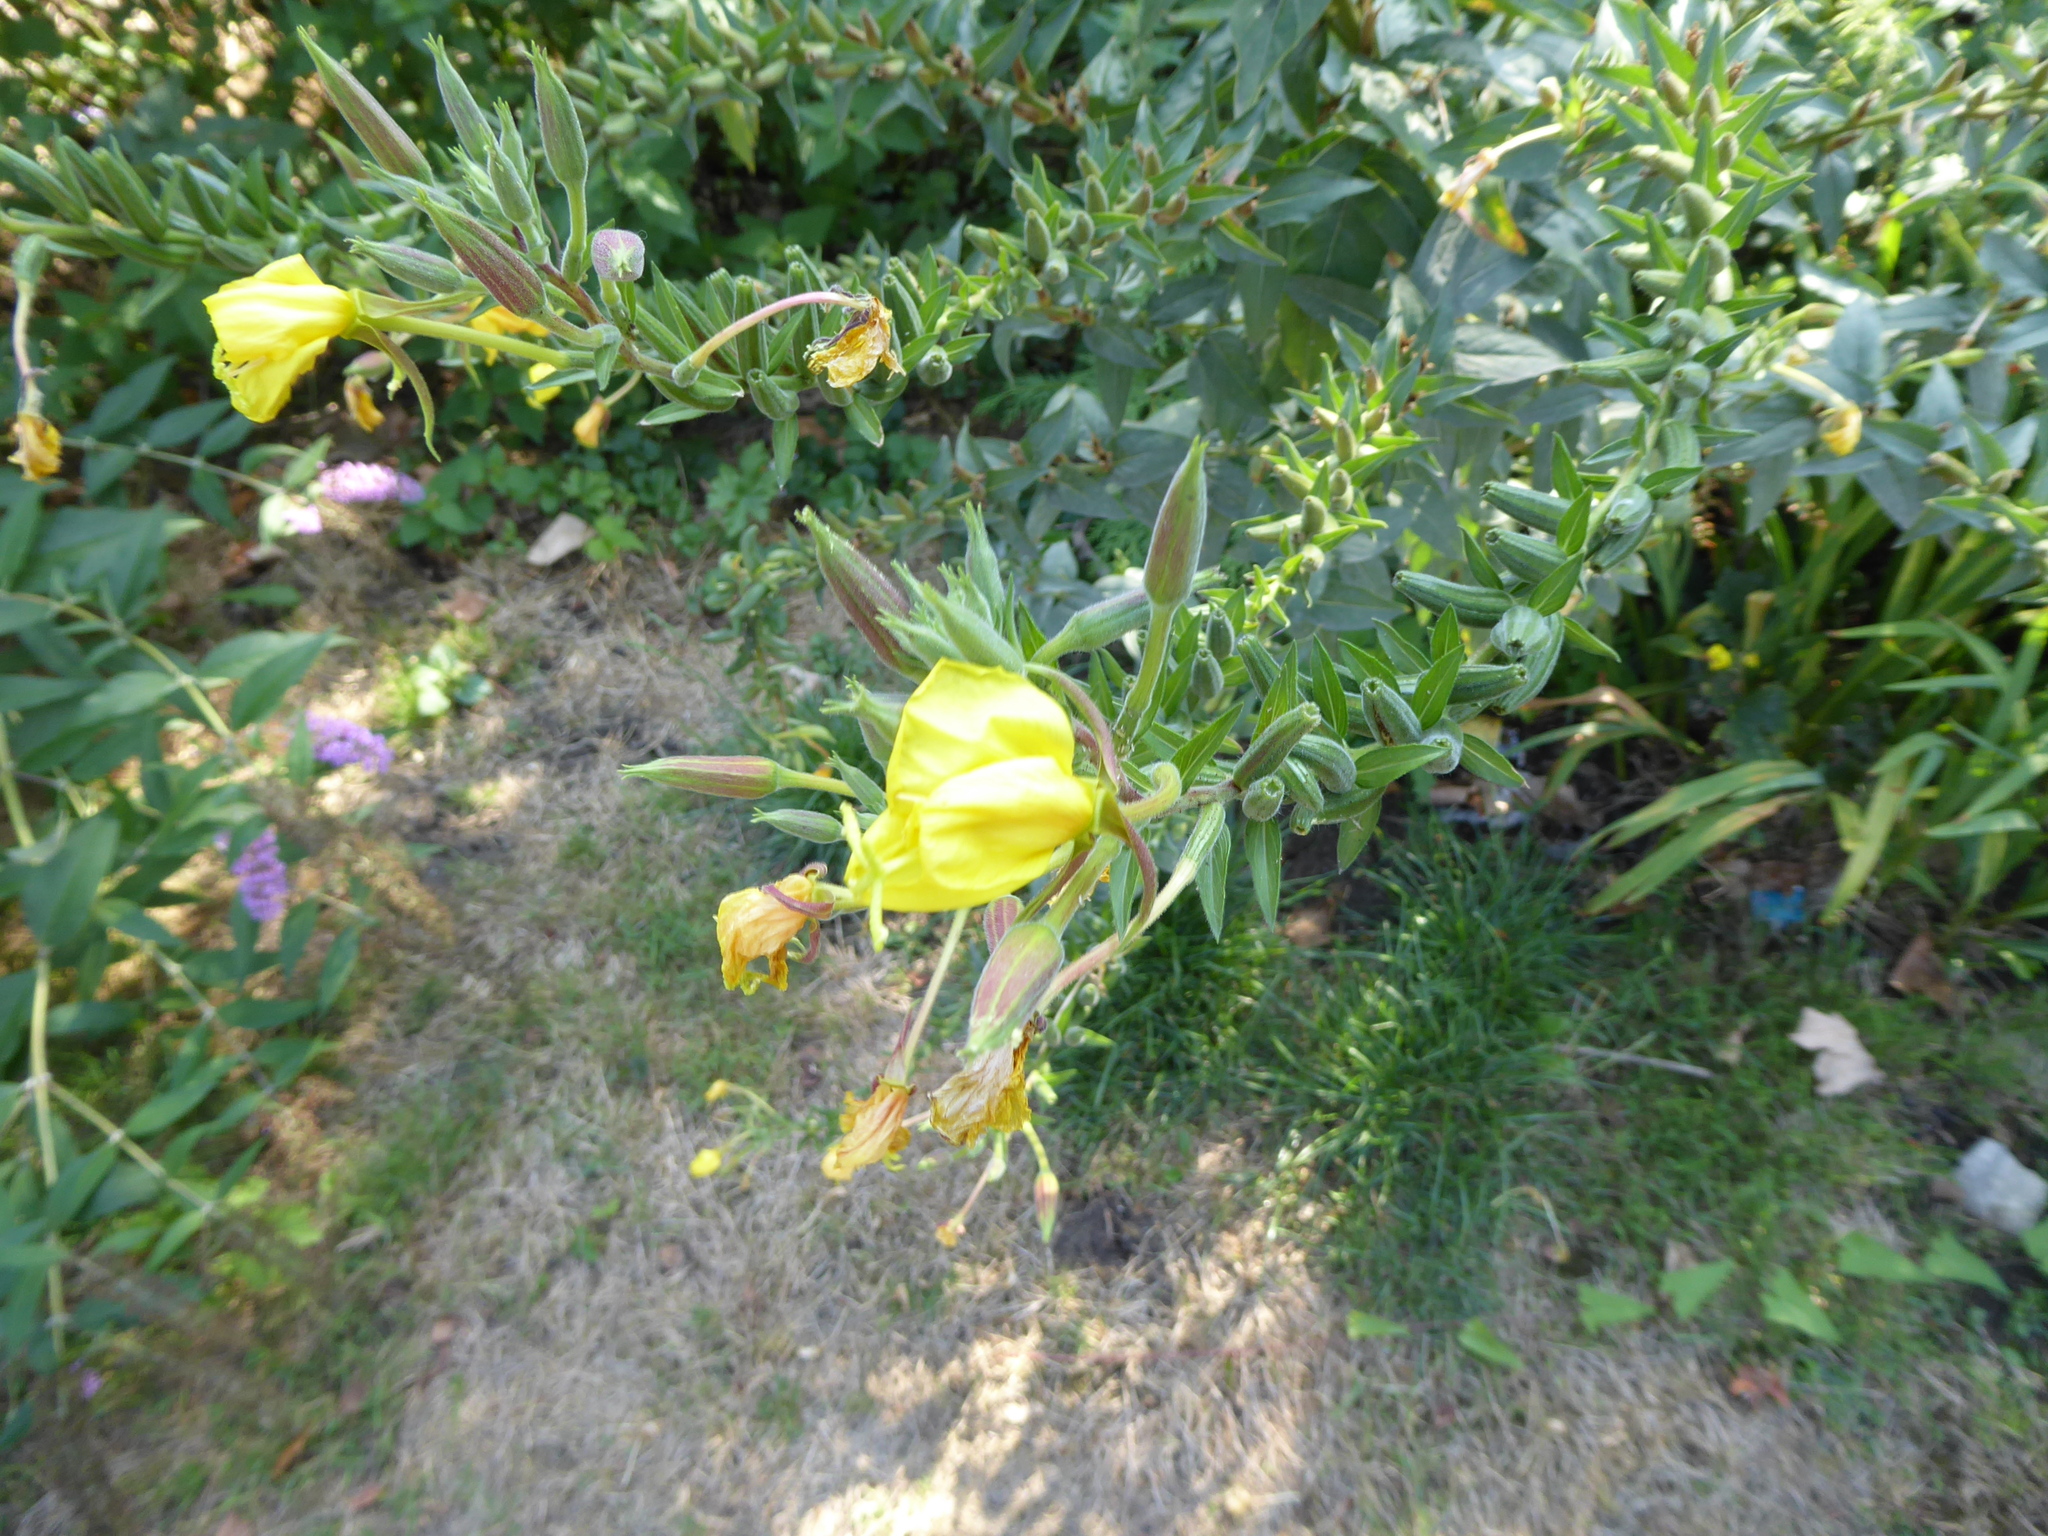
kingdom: Plantae
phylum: Tracheophyta
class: Magnoliopsida
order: Myrtales
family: Onagraceae
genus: Oenothera
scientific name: Oenothera glazioviana
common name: Large-flowered evening-primrose
